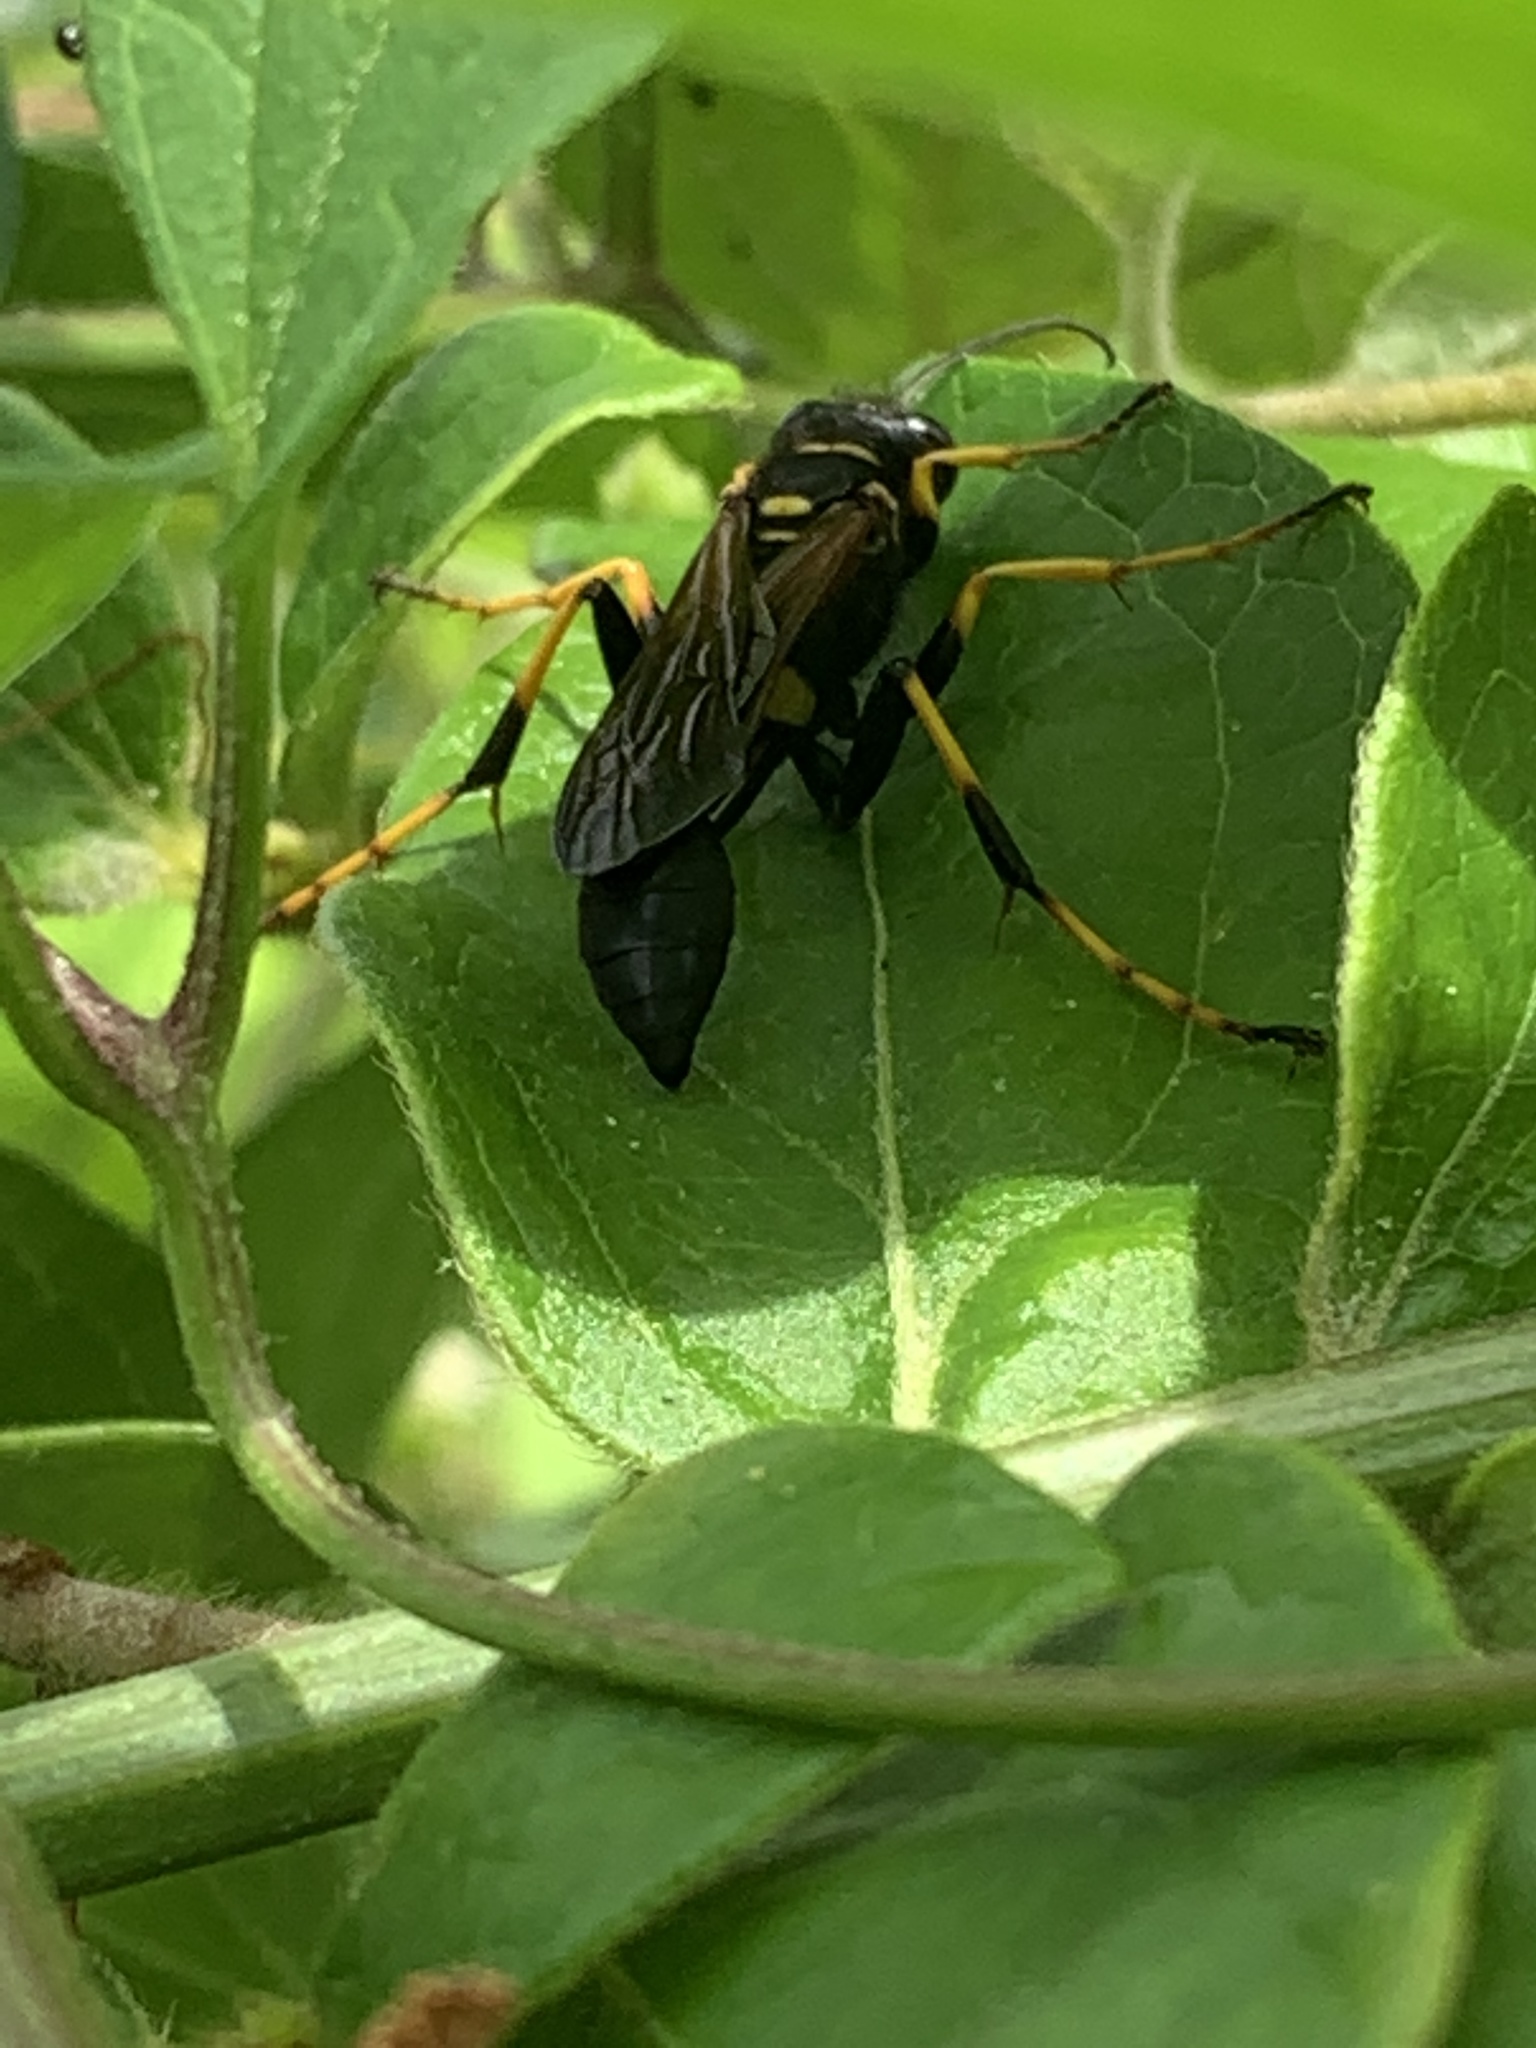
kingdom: Animalia
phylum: Arthropoda
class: Insecta
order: Hymenoptera
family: Sphecidae
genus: Sceliphron
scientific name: Sceliphron caementarium
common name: Mud dauber
